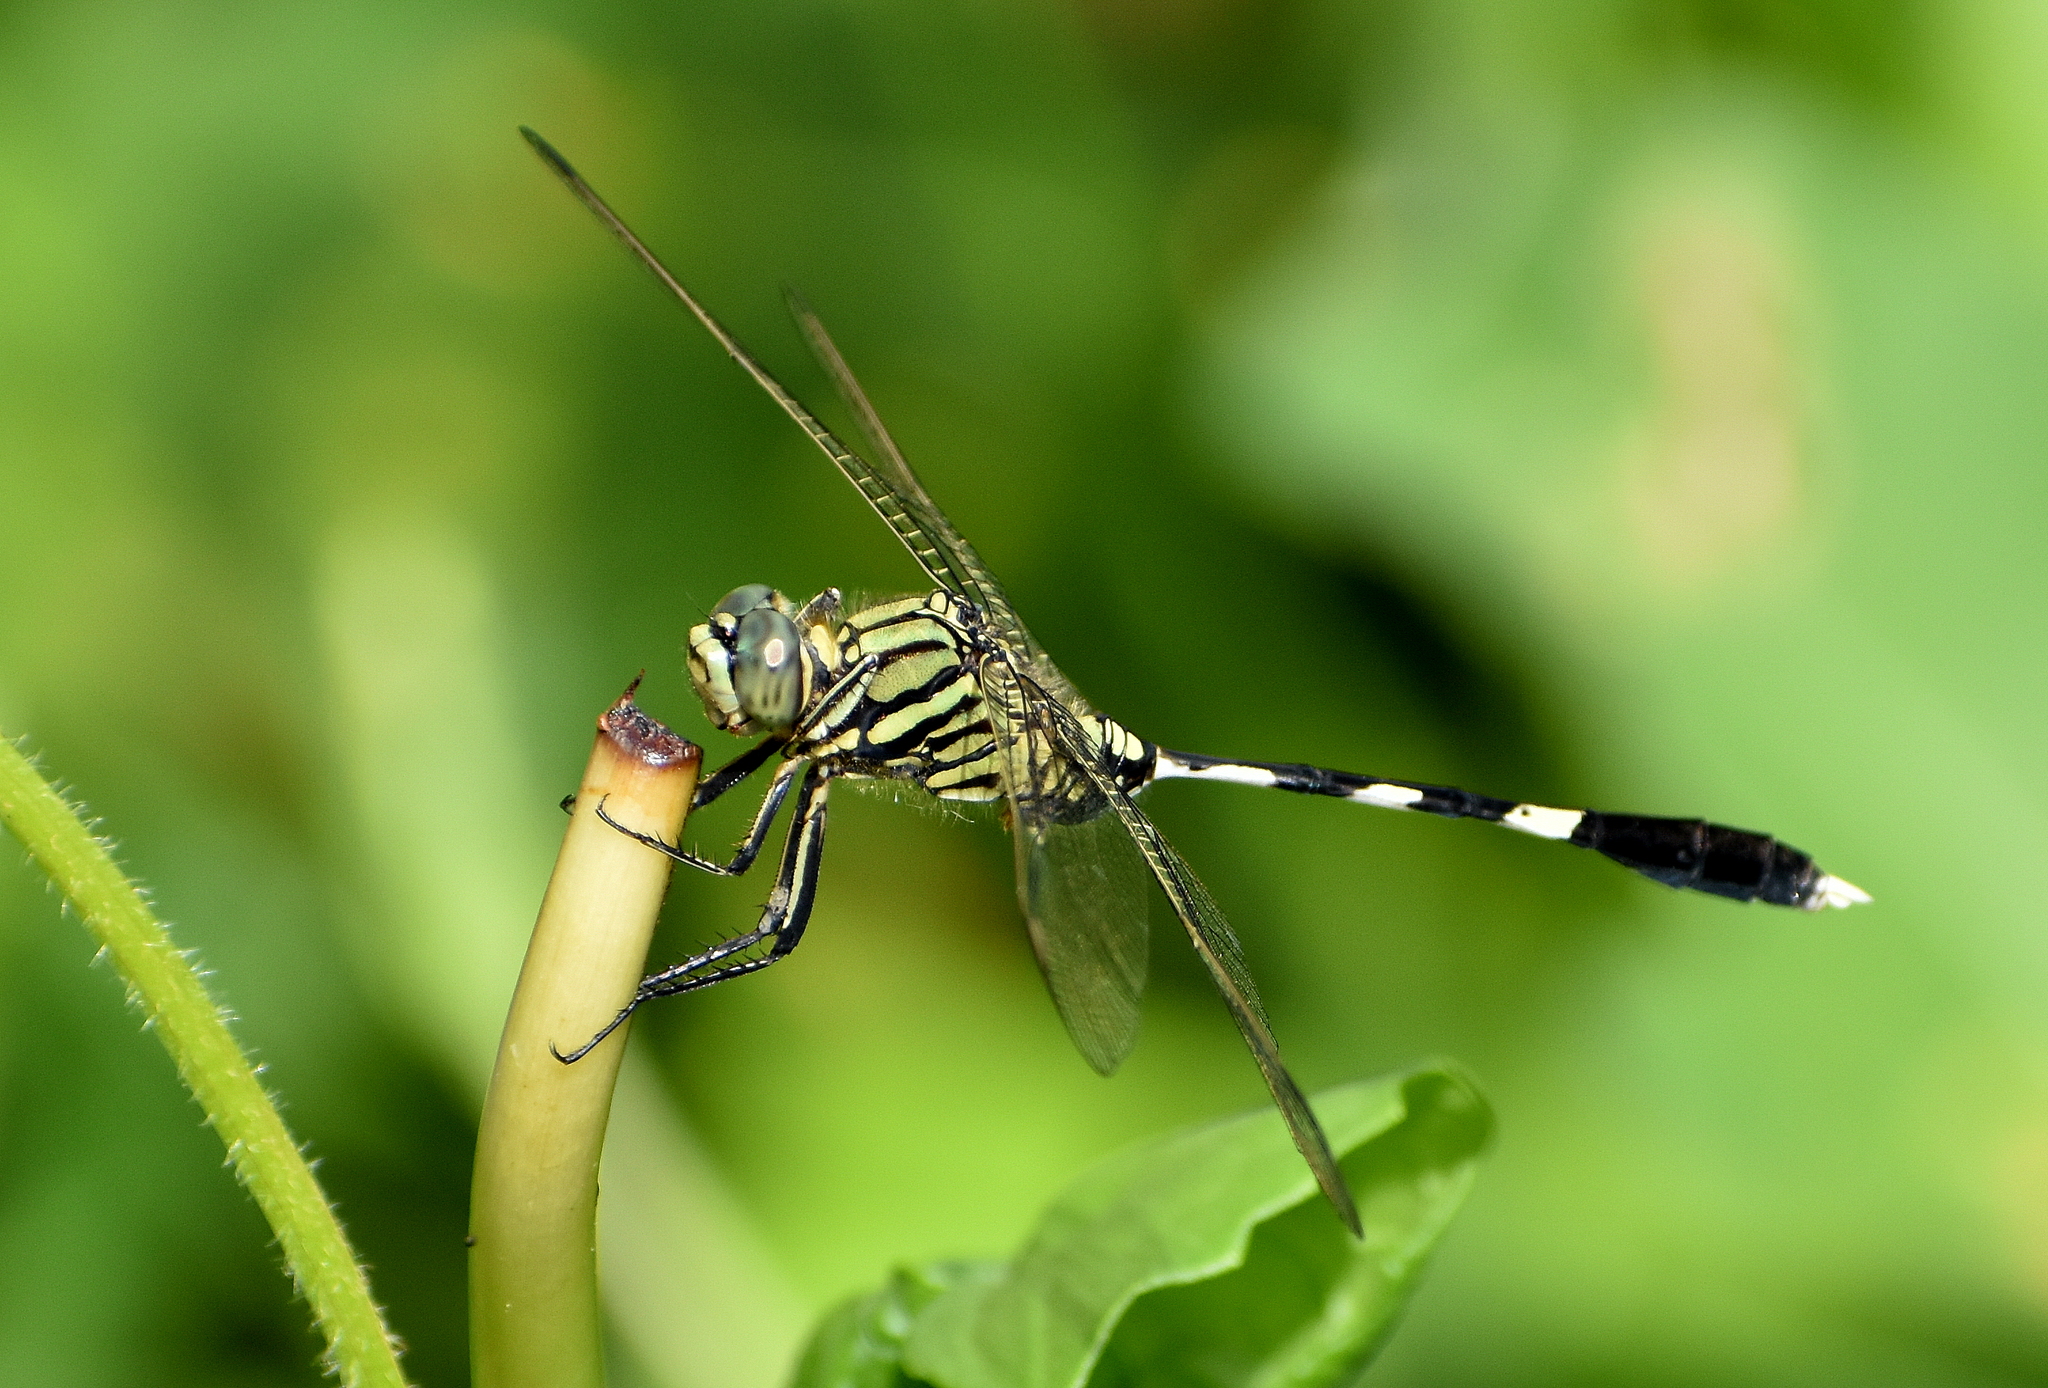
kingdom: Animalia
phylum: Arthropoda
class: Insecta
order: Odonata
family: Libellulidae
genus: Orthetrum
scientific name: Orthetrum sabina
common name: Slender skimmer
